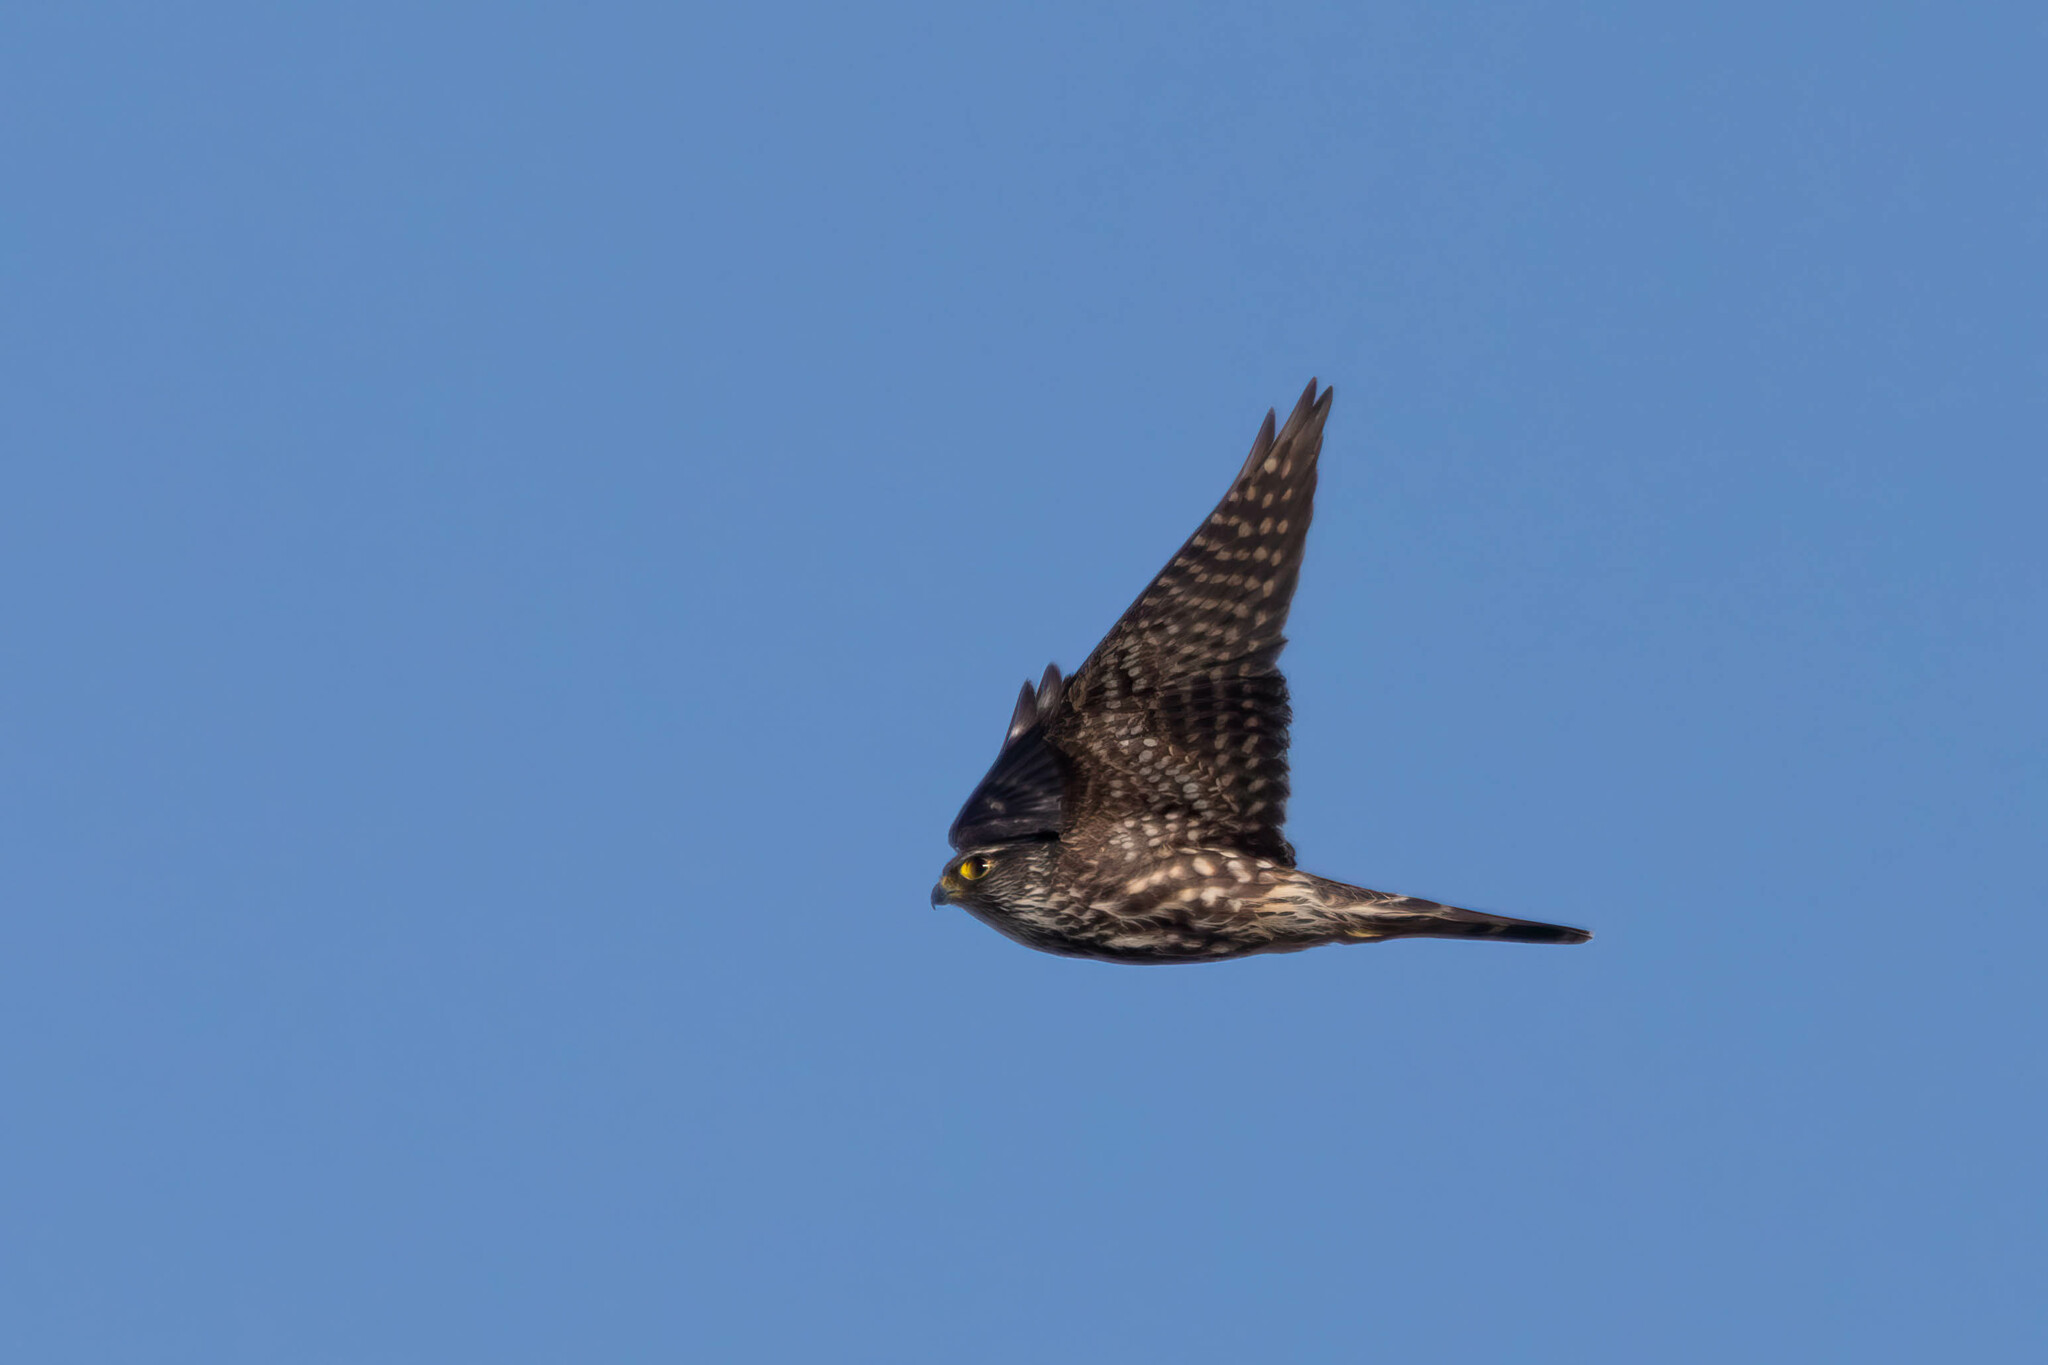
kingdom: Animalia
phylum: Chordata
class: Aves
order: Falconiformes
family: Falconidae
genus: Falco
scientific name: Falco columbarius
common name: Merlin
